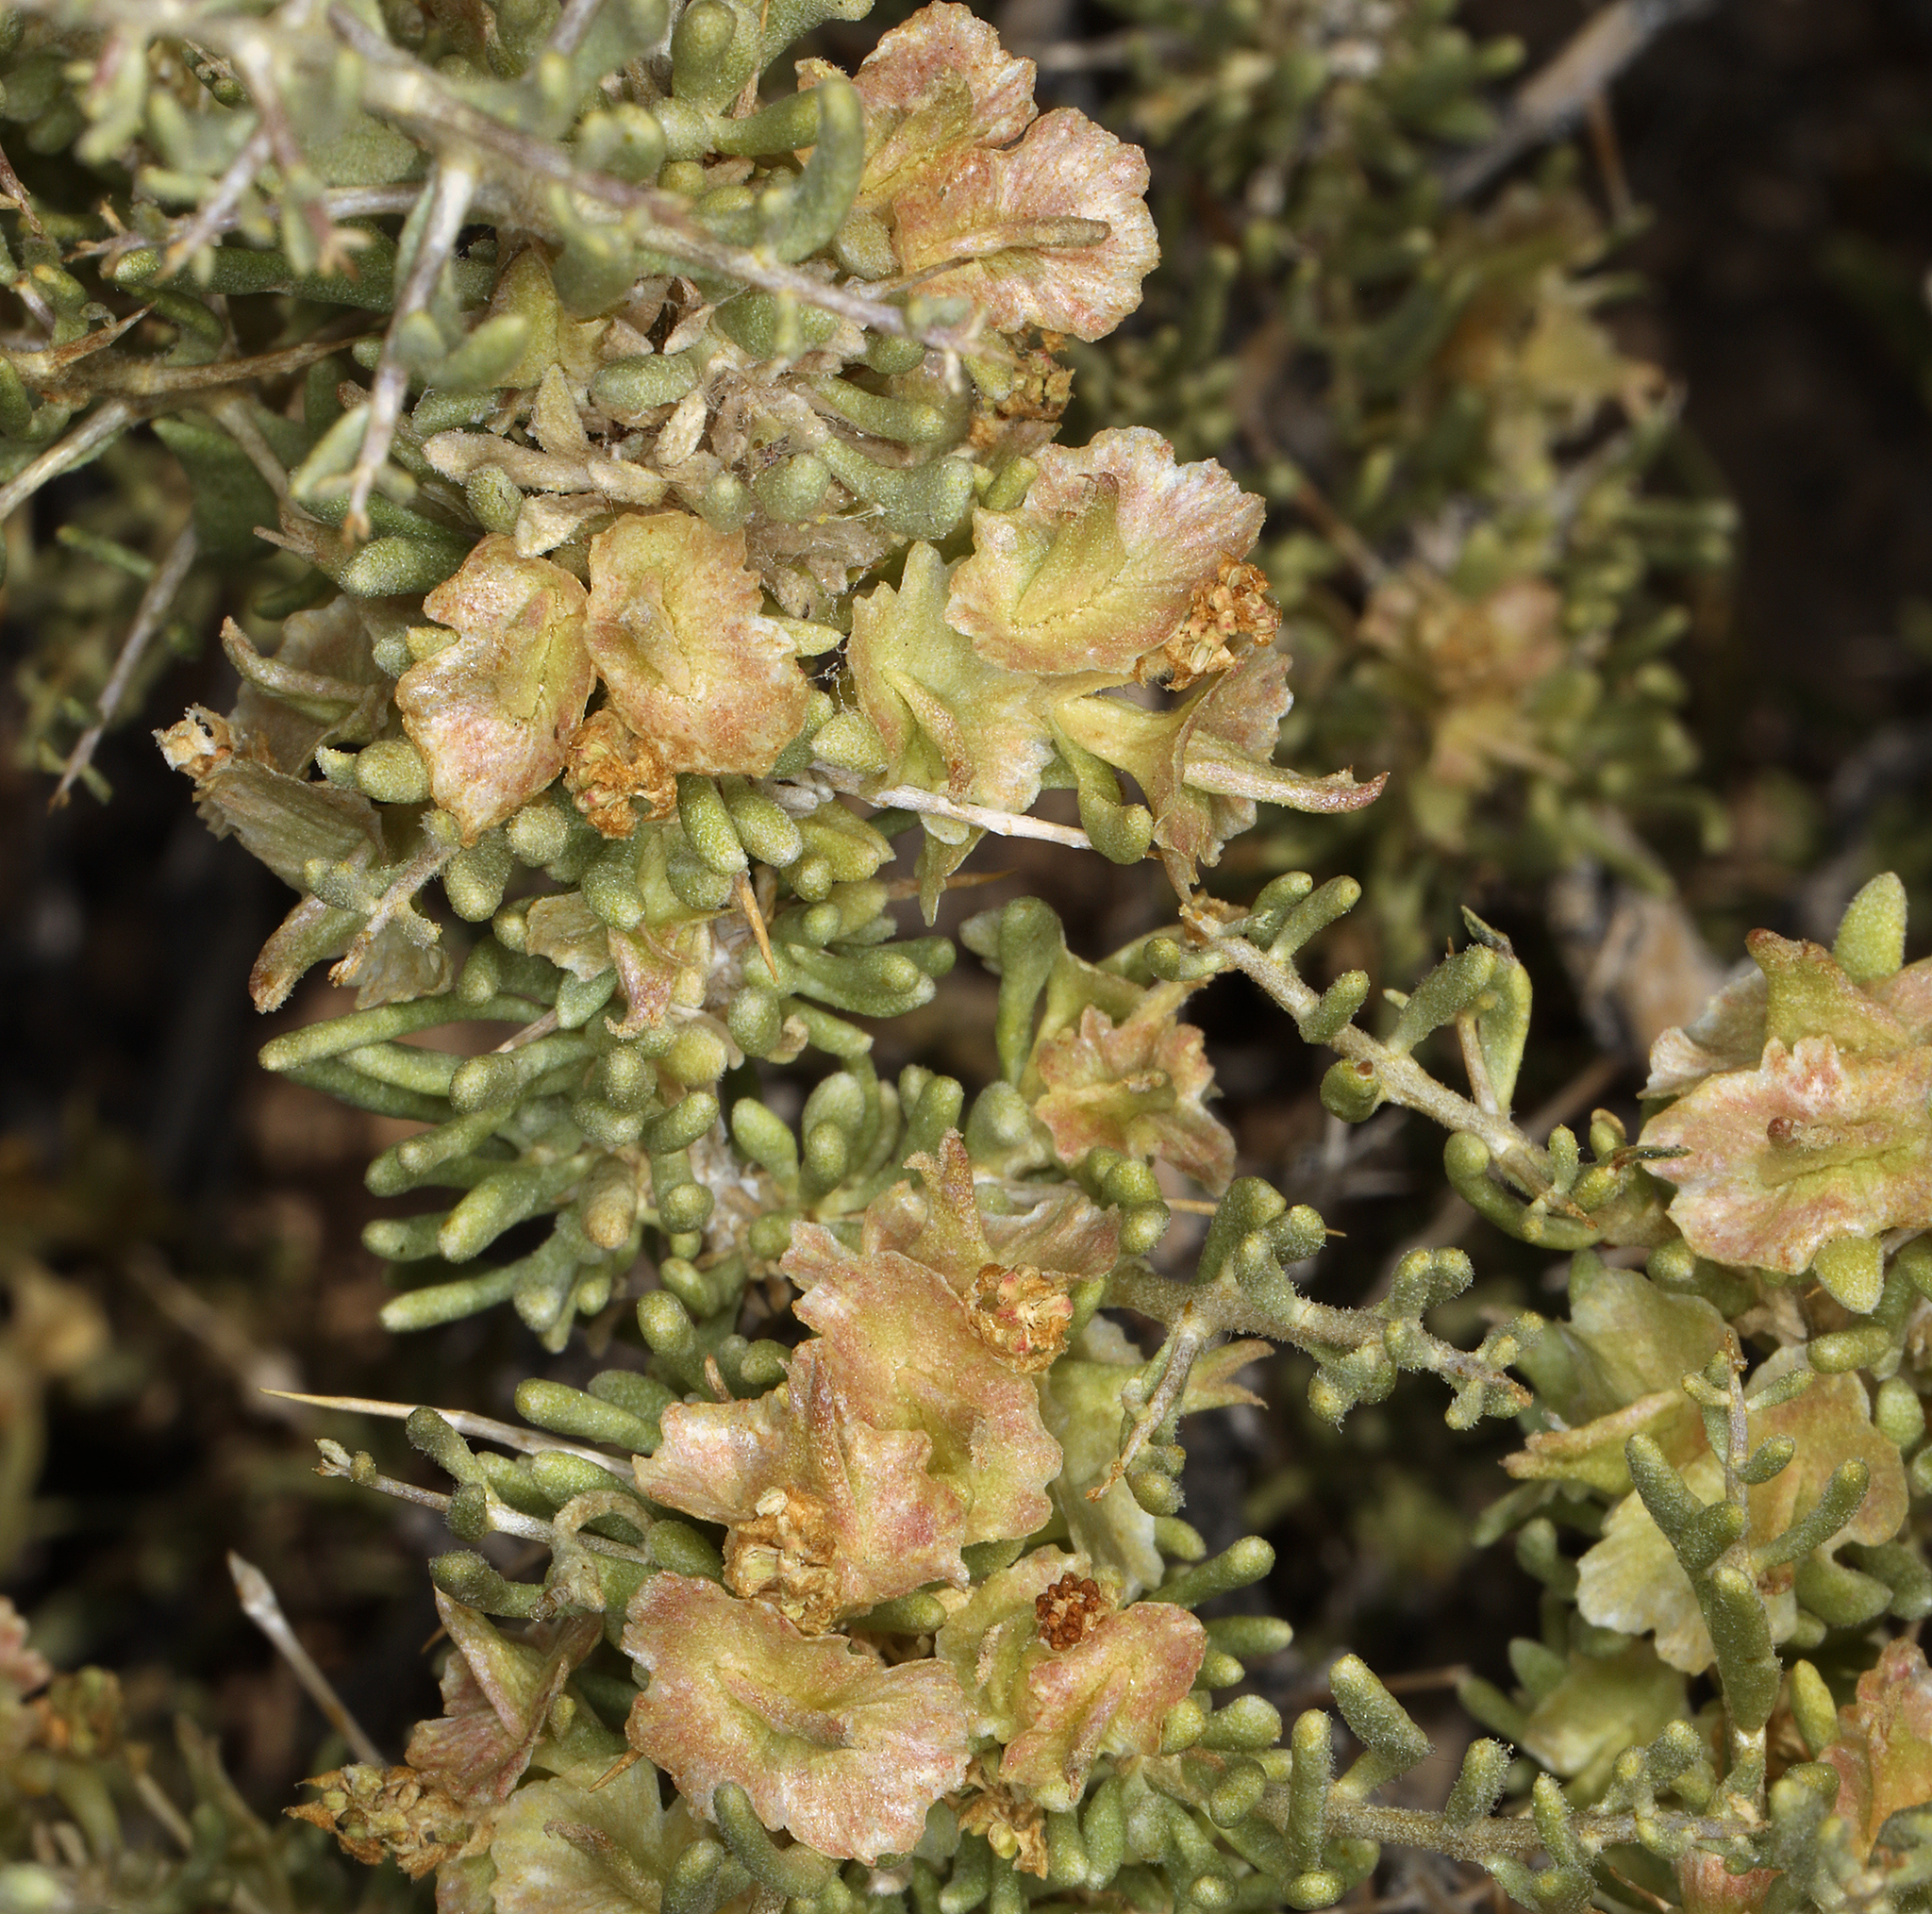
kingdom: Plantae
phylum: Tracheophyta
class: Magnoliopsida
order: Caryophyllales
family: Sarcobataceae
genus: Sarcobatus
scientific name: Sarcobatus baileyi
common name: Bailey greasewood
